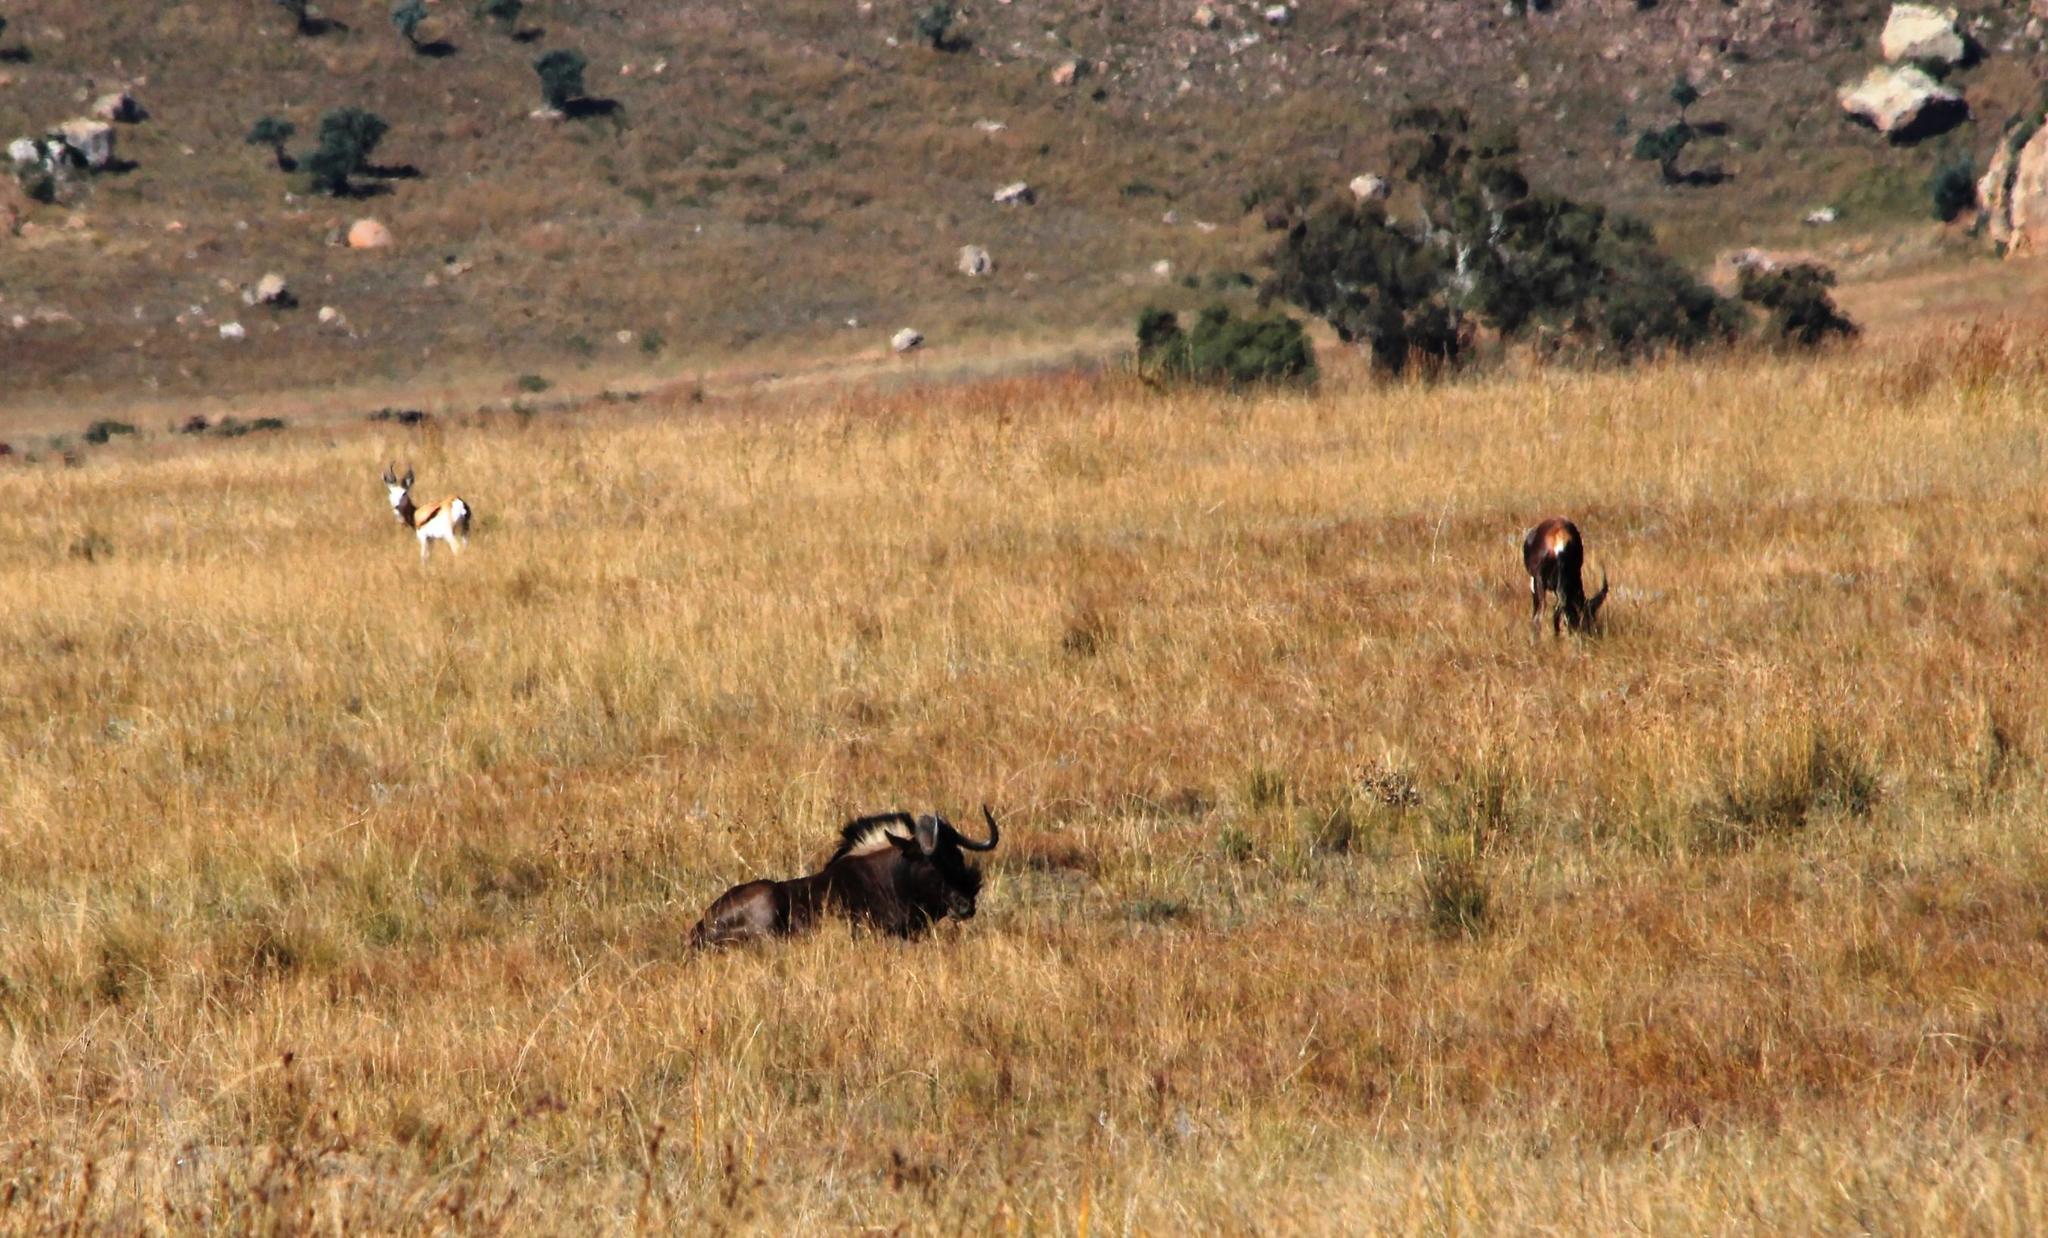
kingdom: Animalia
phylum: Chordata
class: Mammalia
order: Artiodactyla
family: Bovidae
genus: Connochaetes
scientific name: Connochaetes gnou
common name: Black wildebeest
